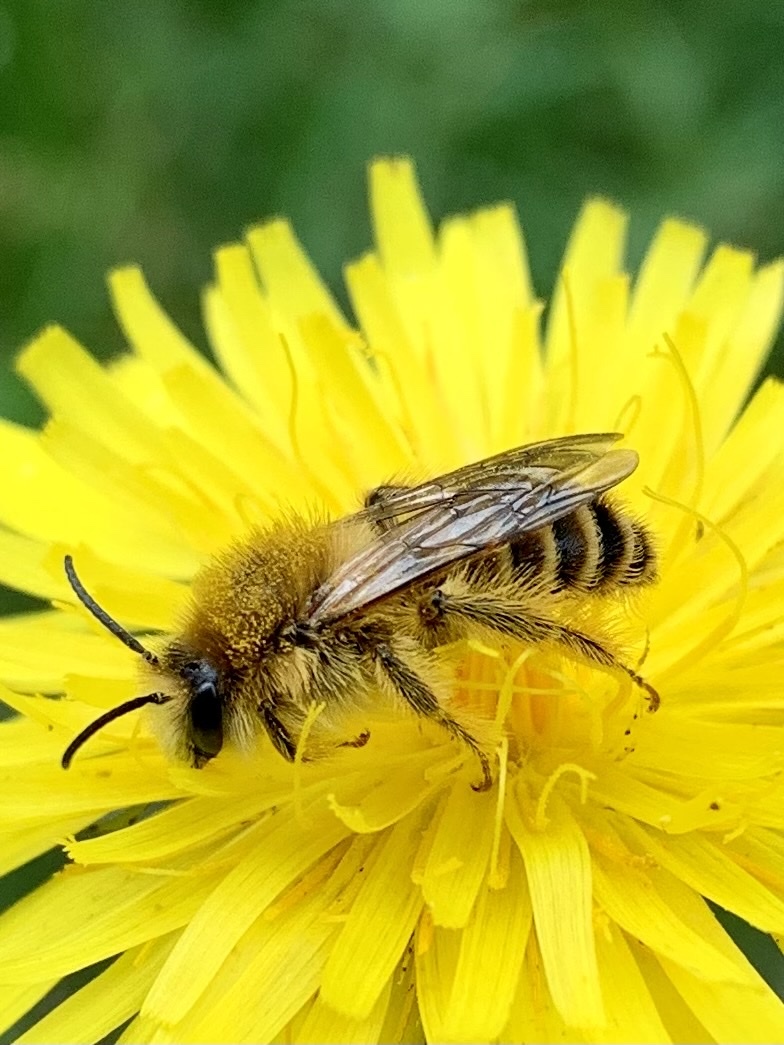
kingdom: Animalia
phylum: Arthropoda
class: Insecta
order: Hymenoptera
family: Melittidae
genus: Dasypoda
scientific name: Dasypoda hirtipes
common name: Pantaloon bee
